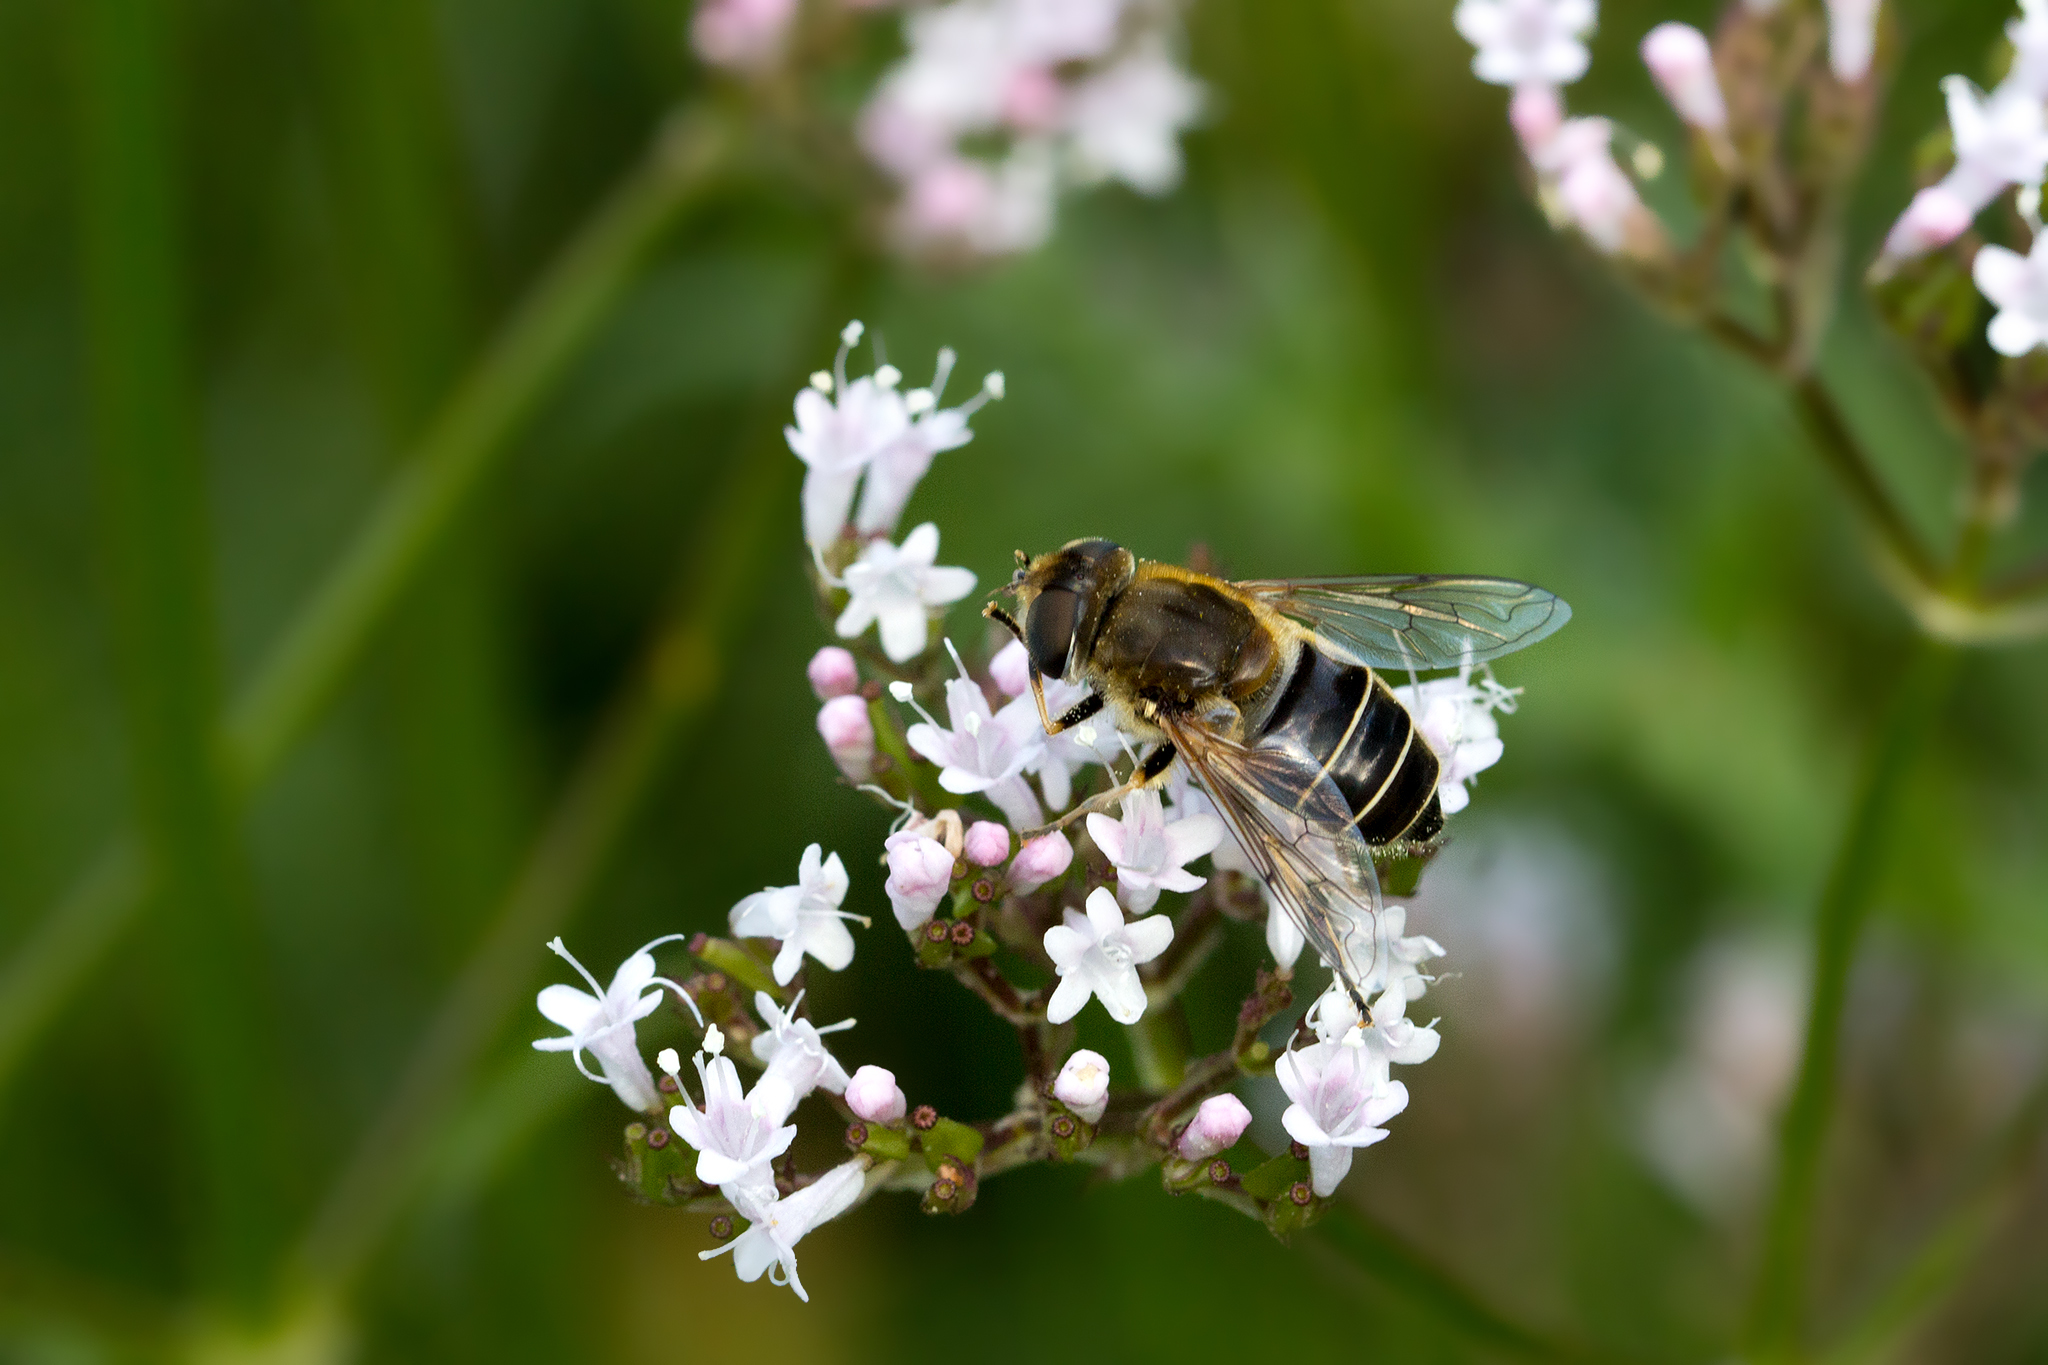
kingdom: Animalia
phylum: Arthropoda
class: Insecta
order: Diptera
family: Syrphidae
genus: Eristalis
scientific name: Eristalis nemorum
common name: Orange-spined drone fly
